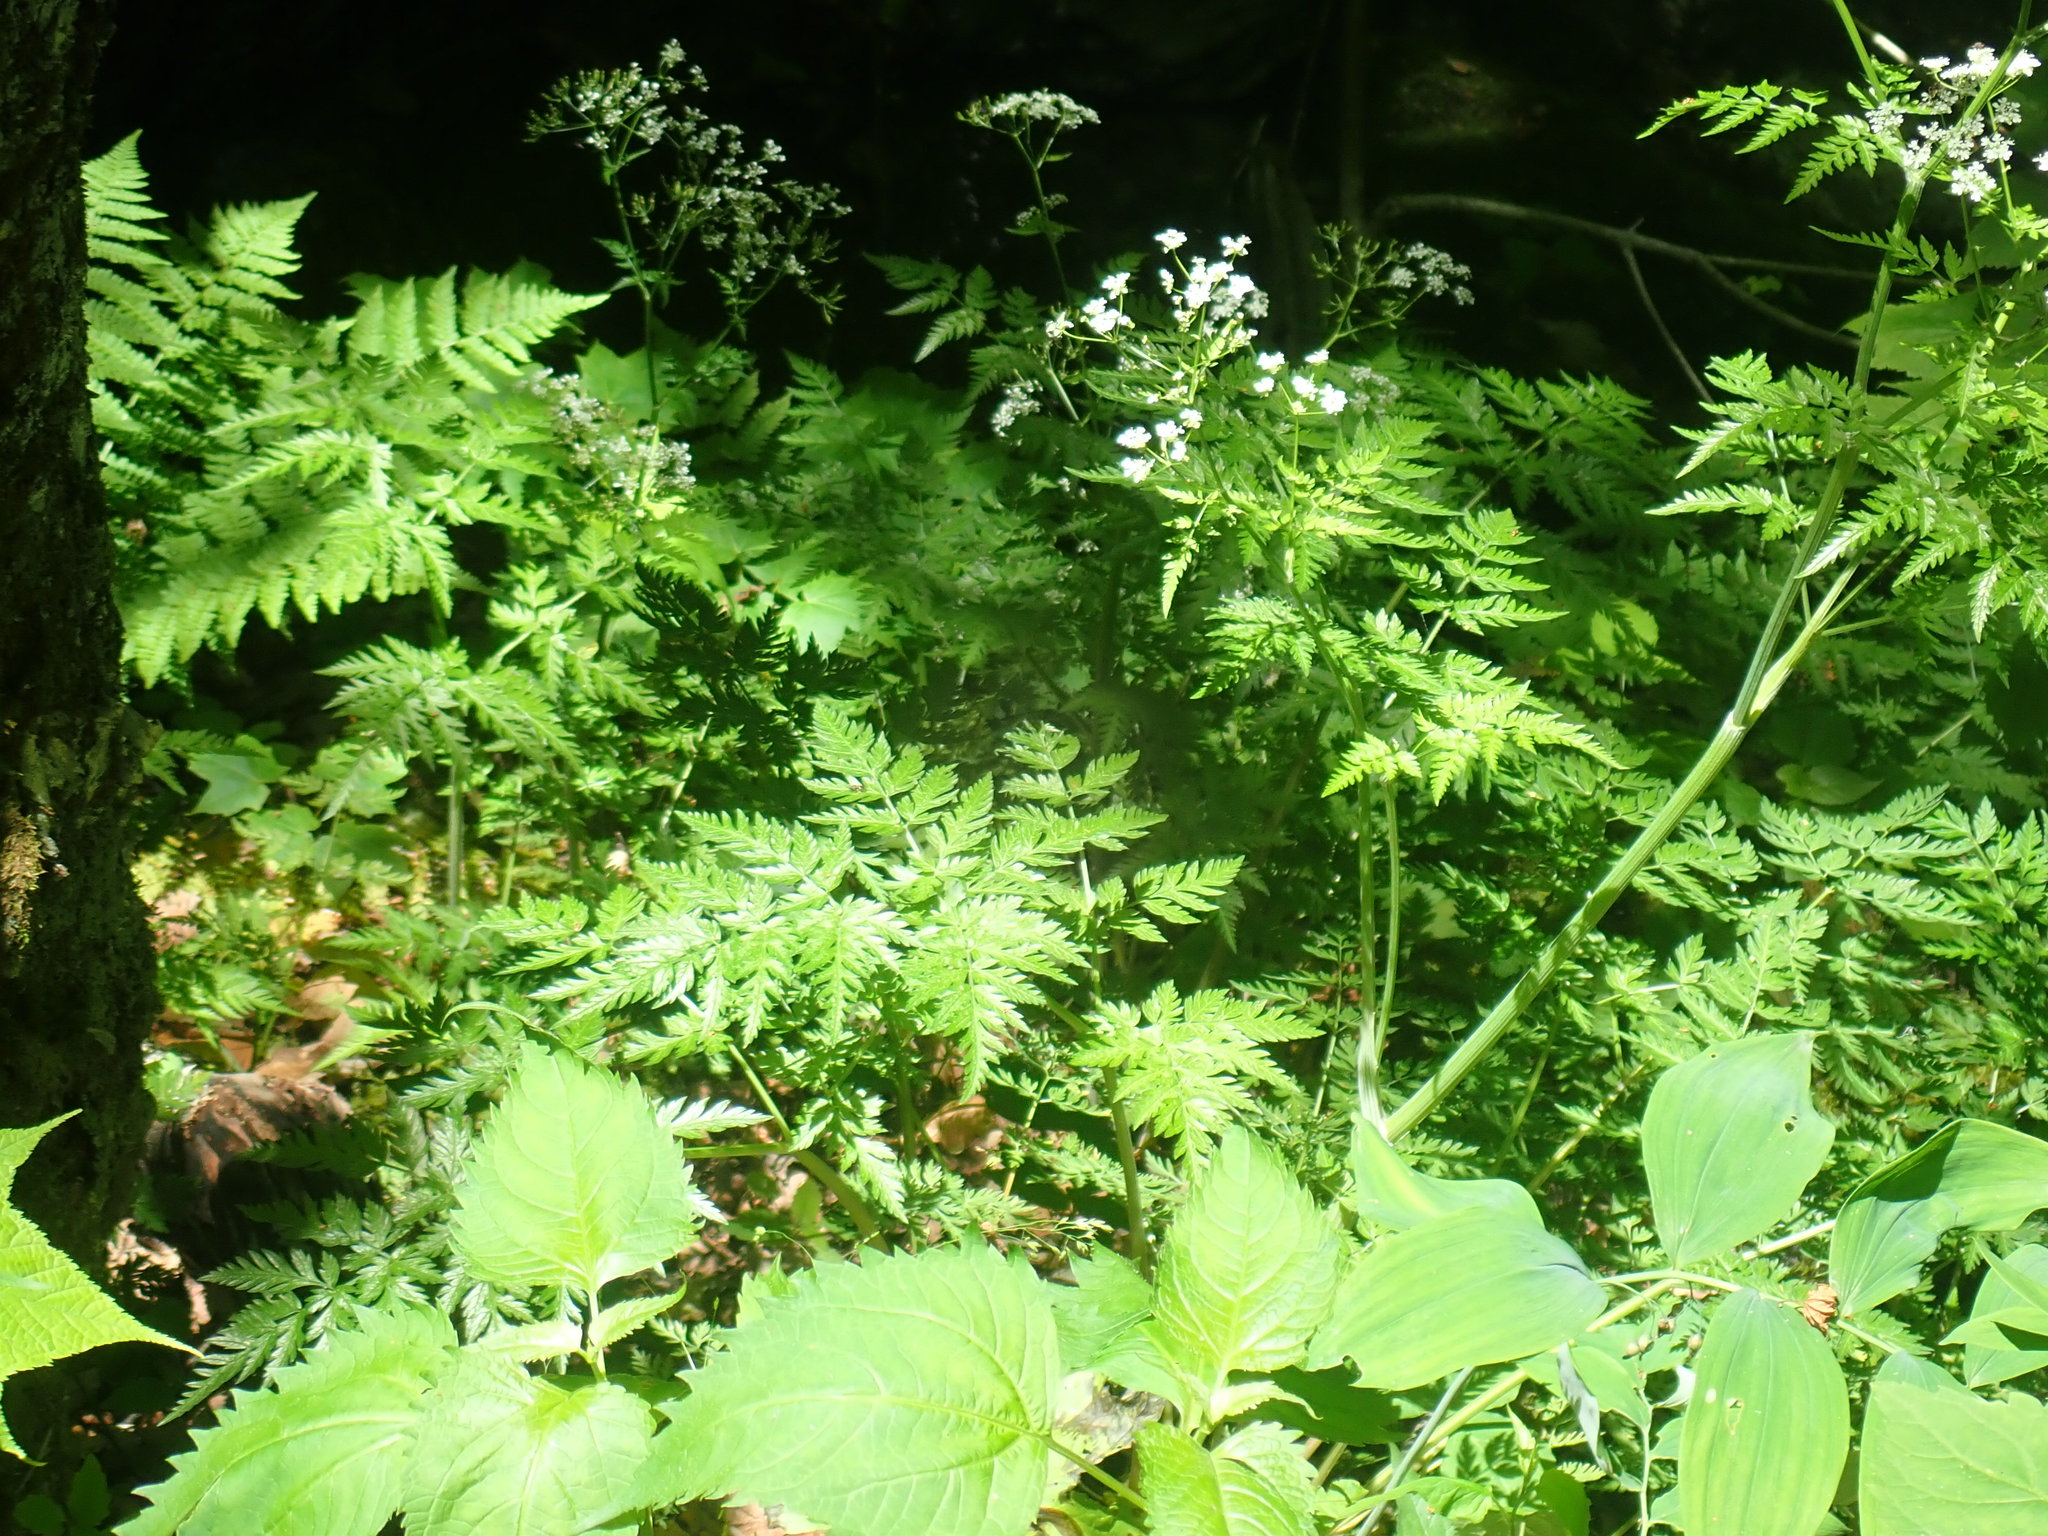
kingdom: Plantae
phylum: Tracheophyta
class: Magnoliopsida
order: Apiales
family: Apiaceae
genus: Anthriscus
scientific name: Anthriscus sylvestris
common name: Cow parsley
